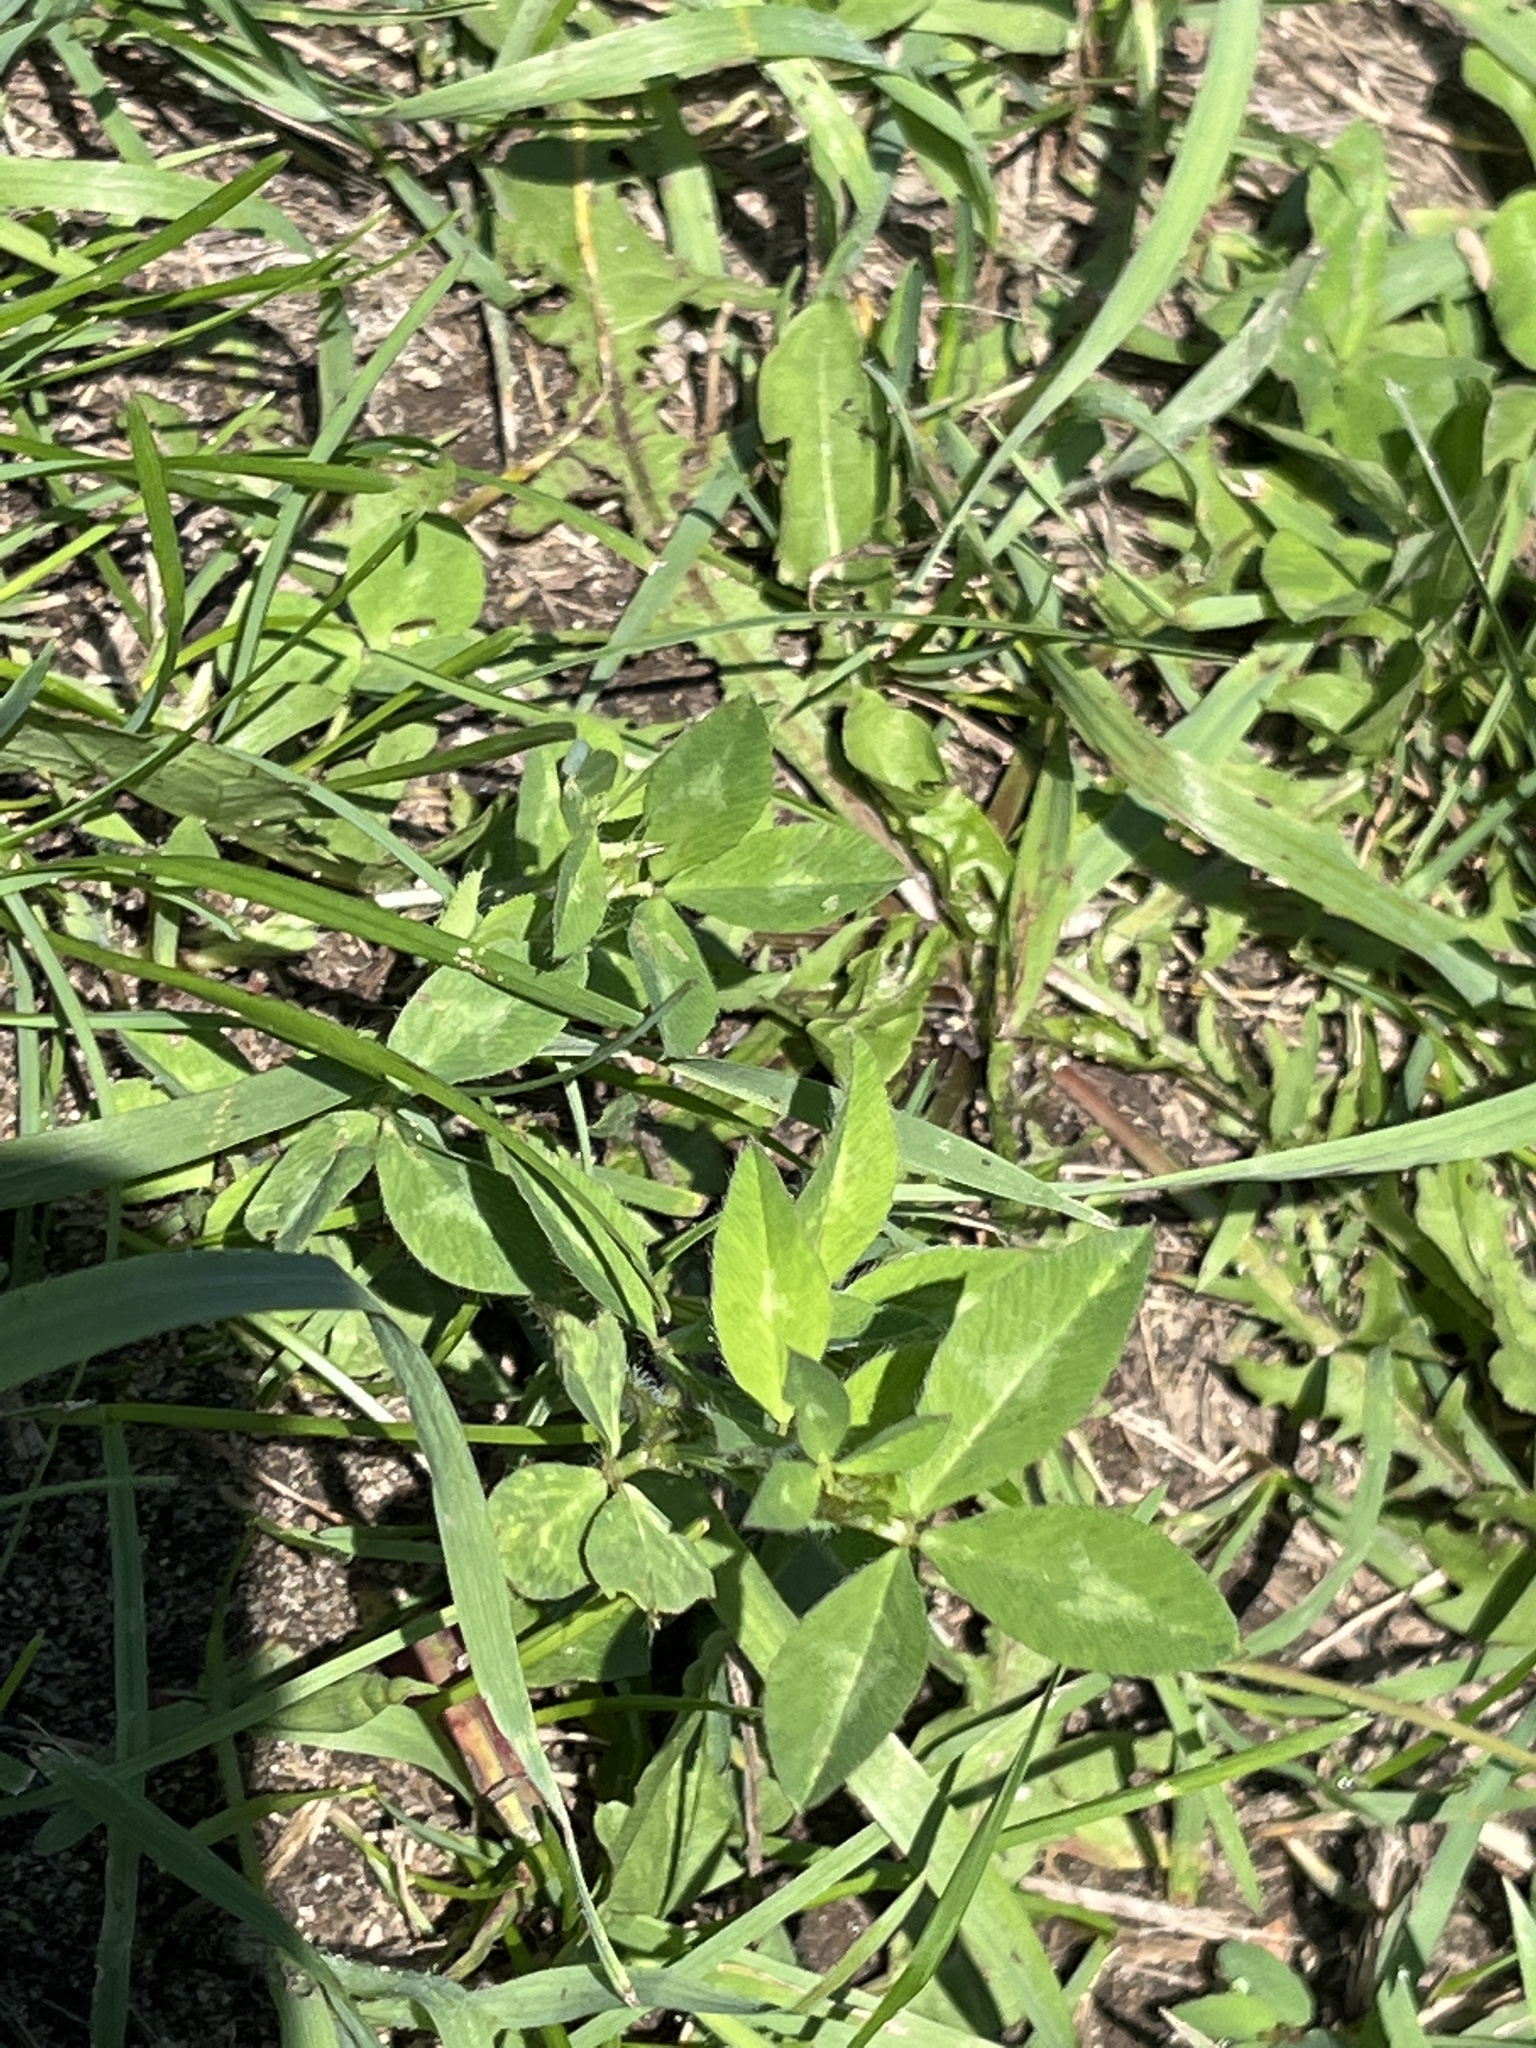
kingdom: Plantae
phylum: Tracheophyta
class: Magnoliopsida
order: Fabales
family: Fabaceae
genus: Trifolium
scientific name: Trifolium pratense
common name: Red clover
